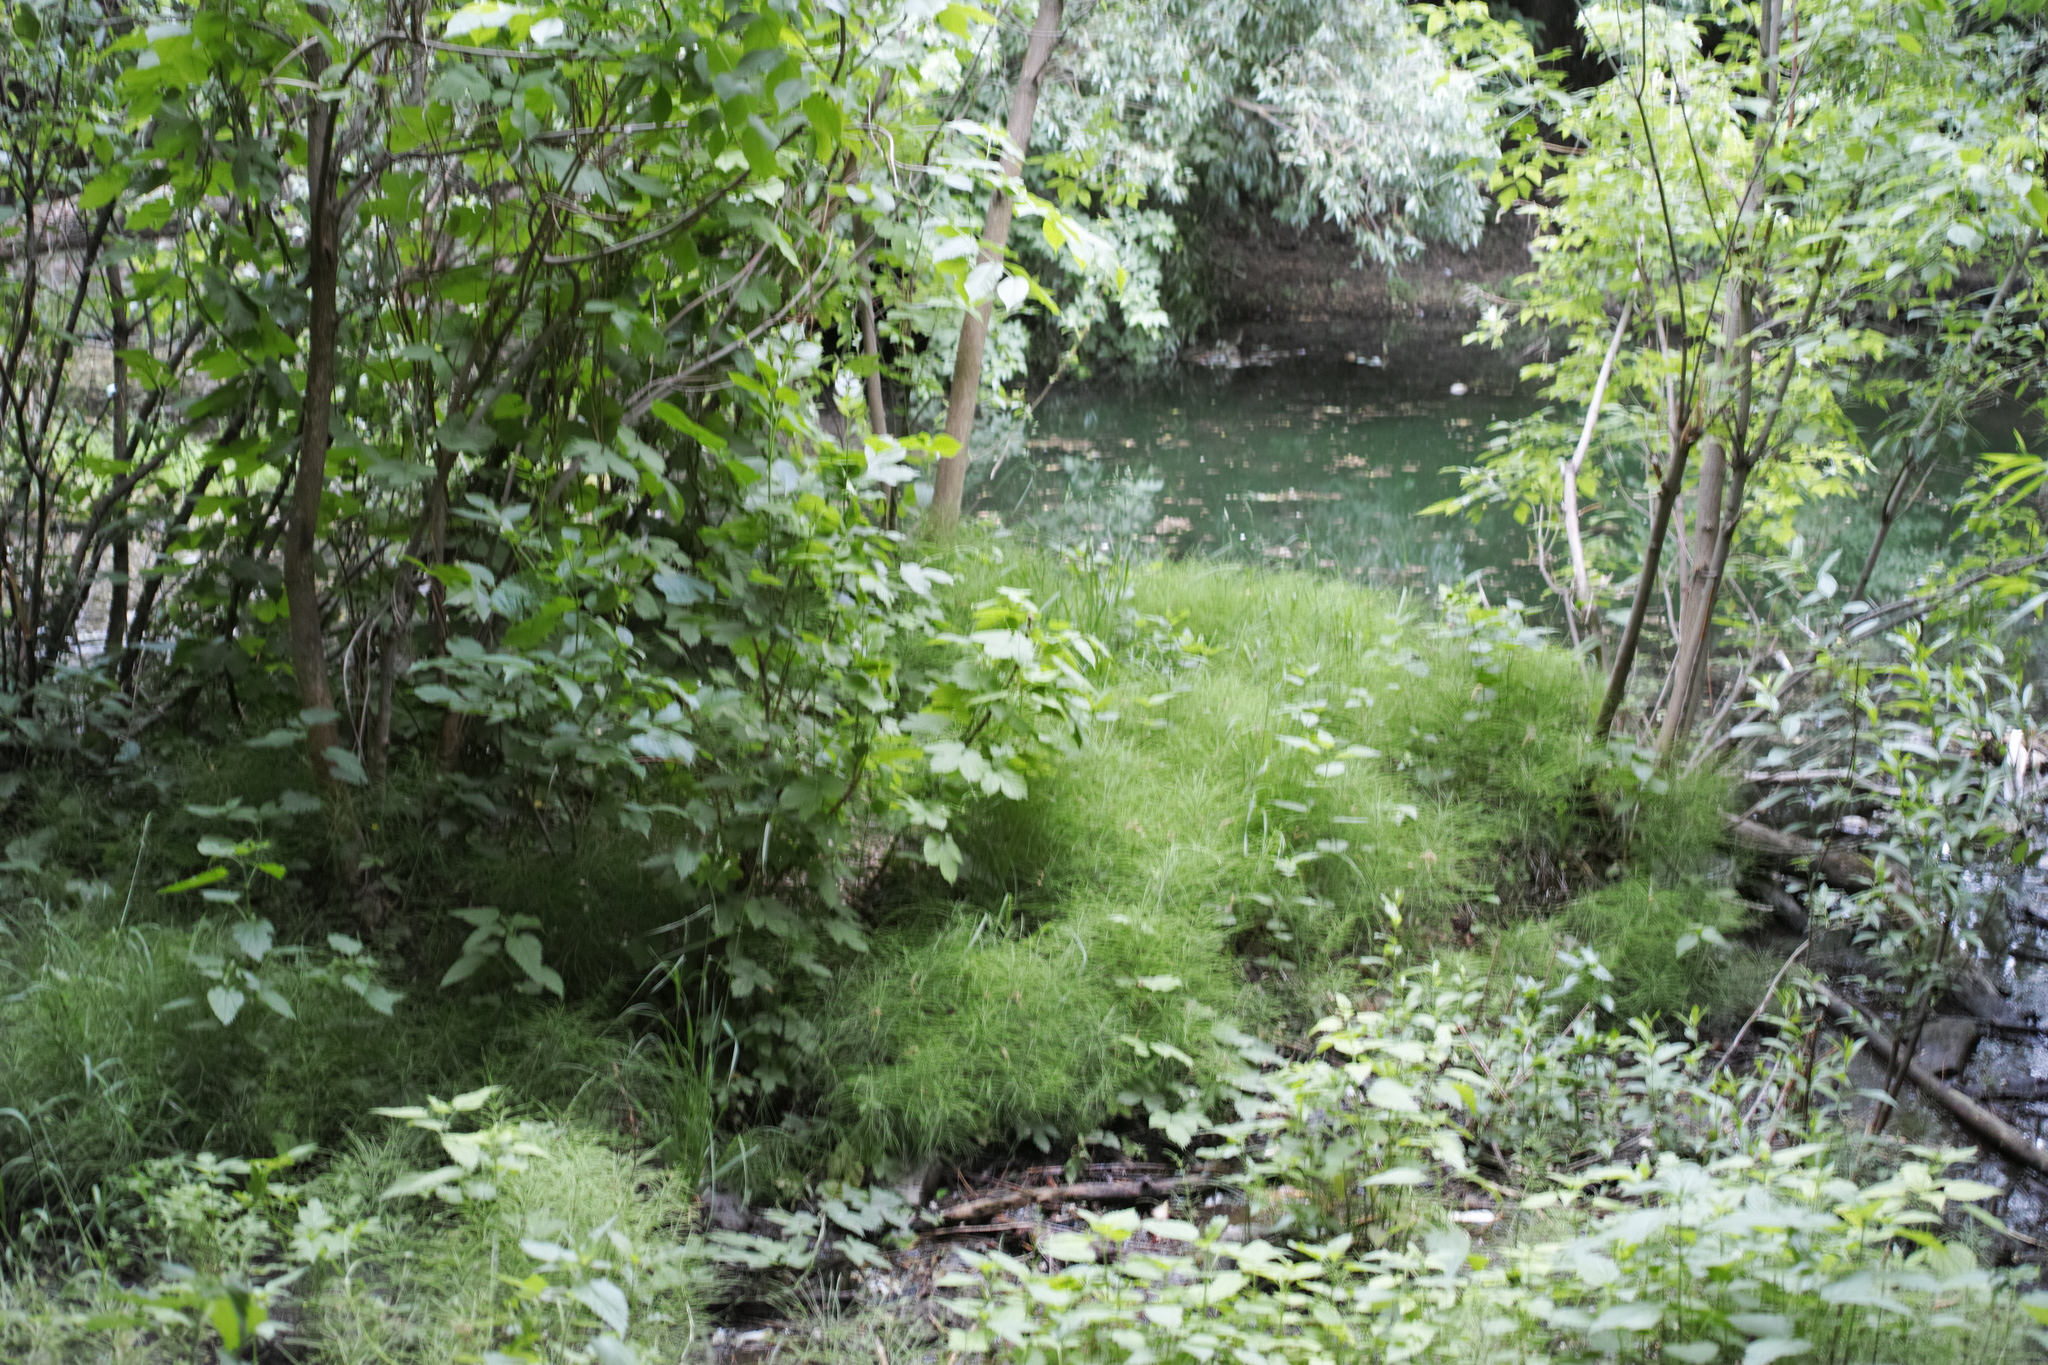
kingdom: Plantae
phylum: Tracheophyta
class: Magnoliopsida
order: Rosales
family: Cannabaceae
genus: Humulus
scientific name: Humulus lupulus
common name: Hop
